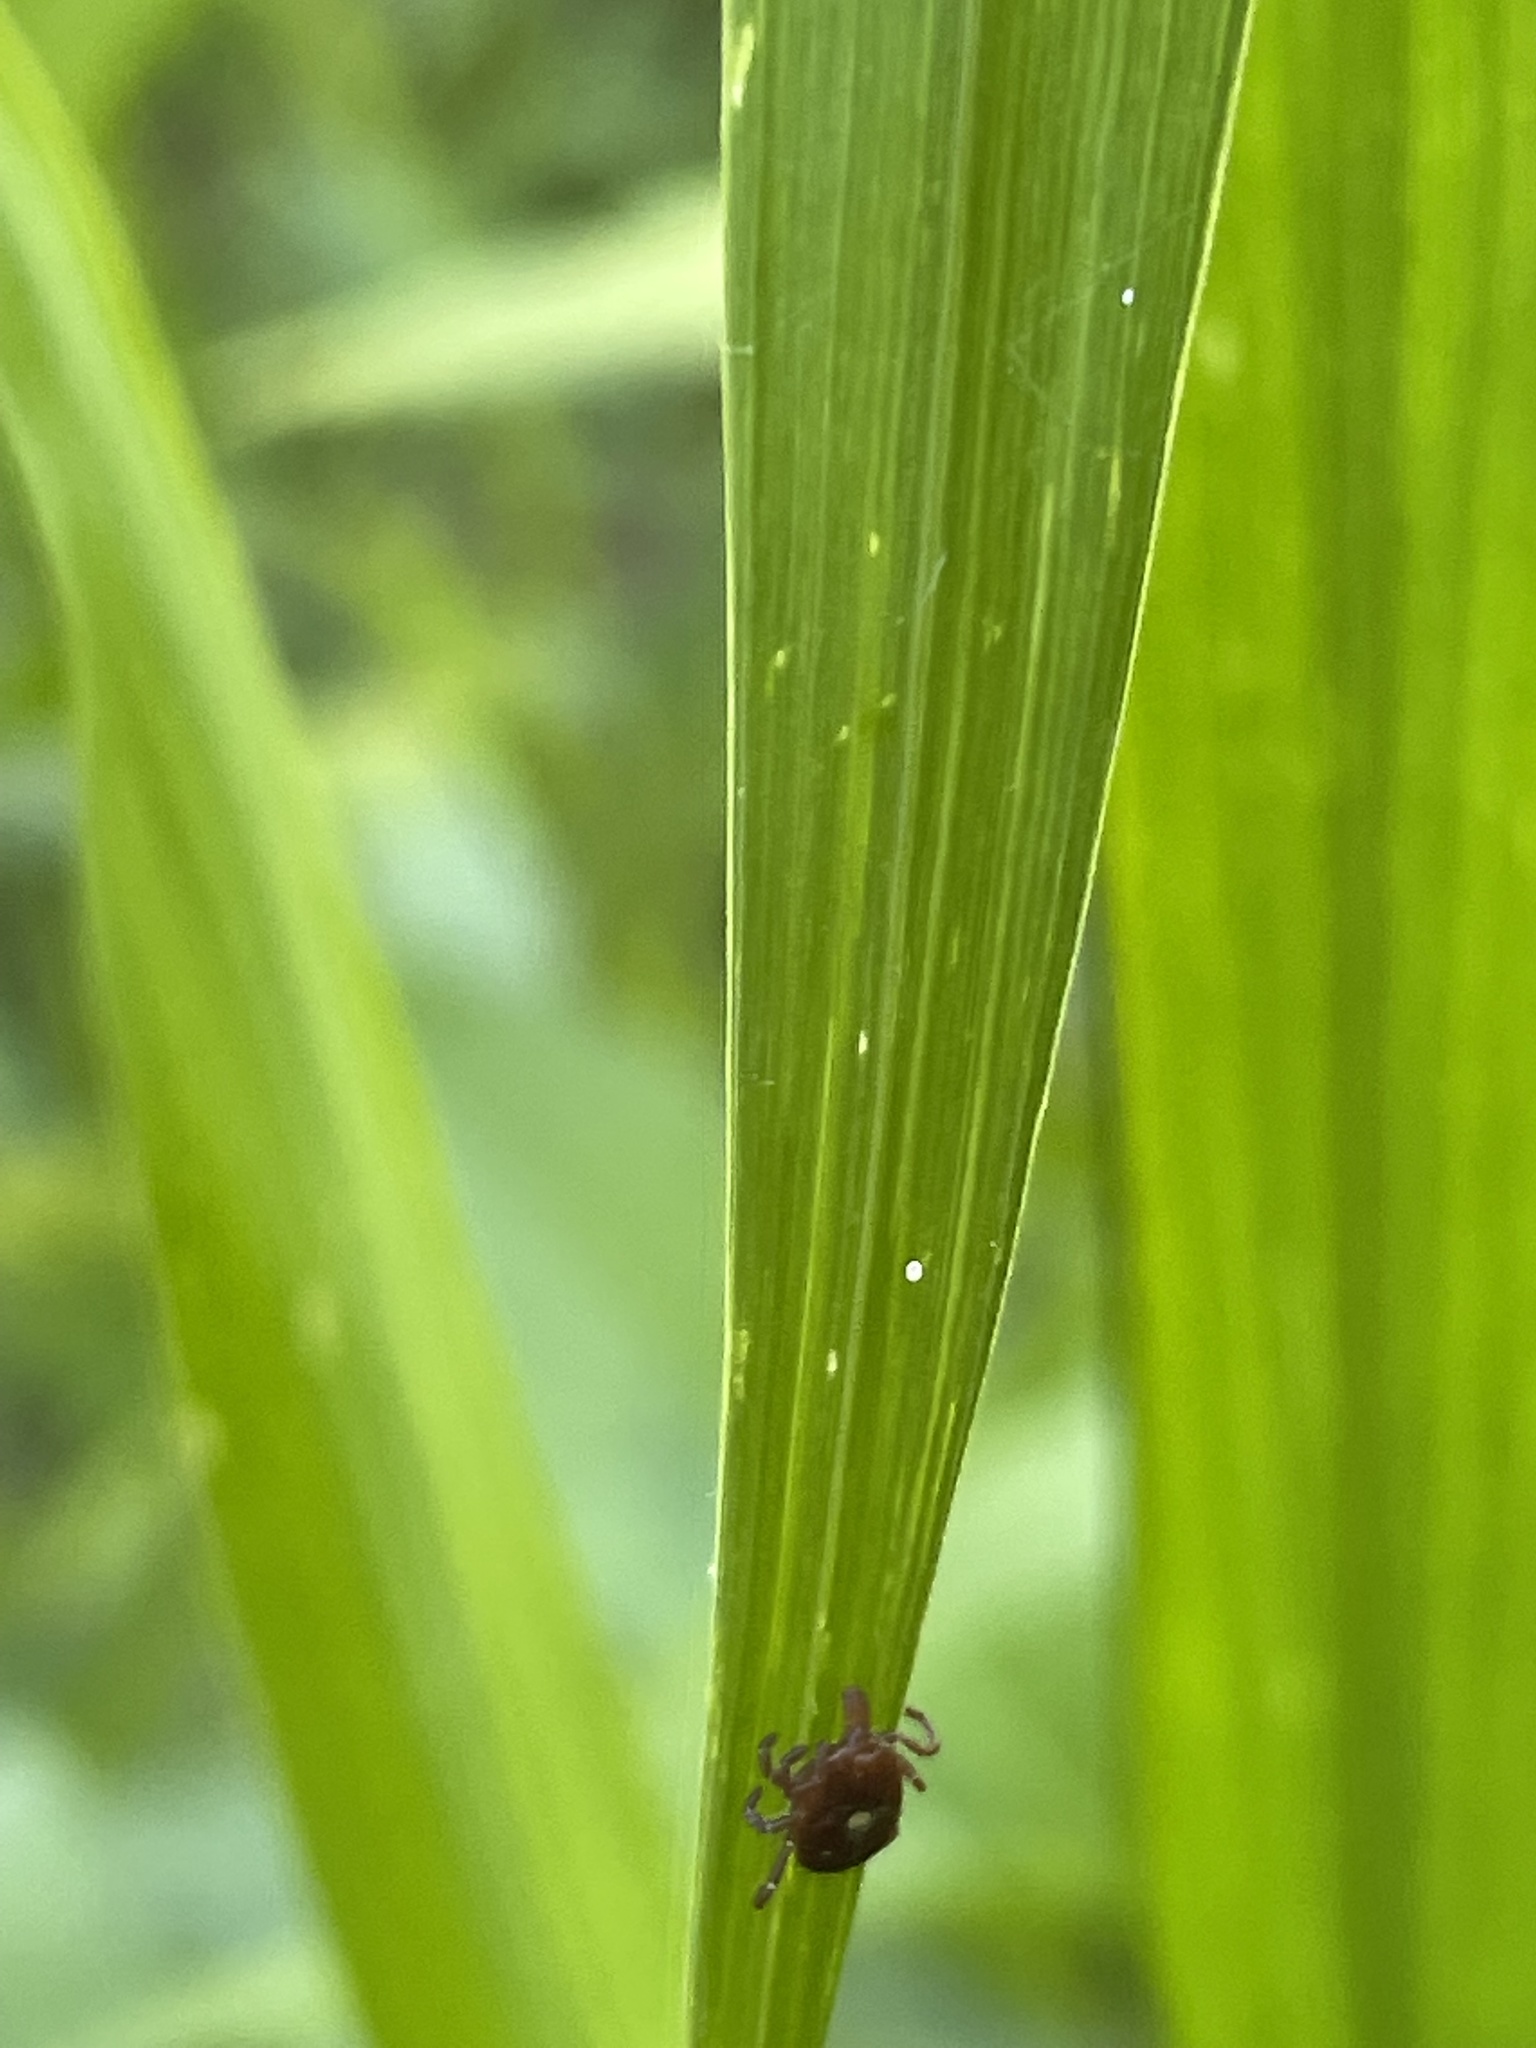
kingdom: Animalia
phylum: Arthropoda
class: Arachnida
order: Ixodida
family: Ixodidae
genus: Amblyomma
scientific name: Amblyomma americanum
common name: Lone star tick
